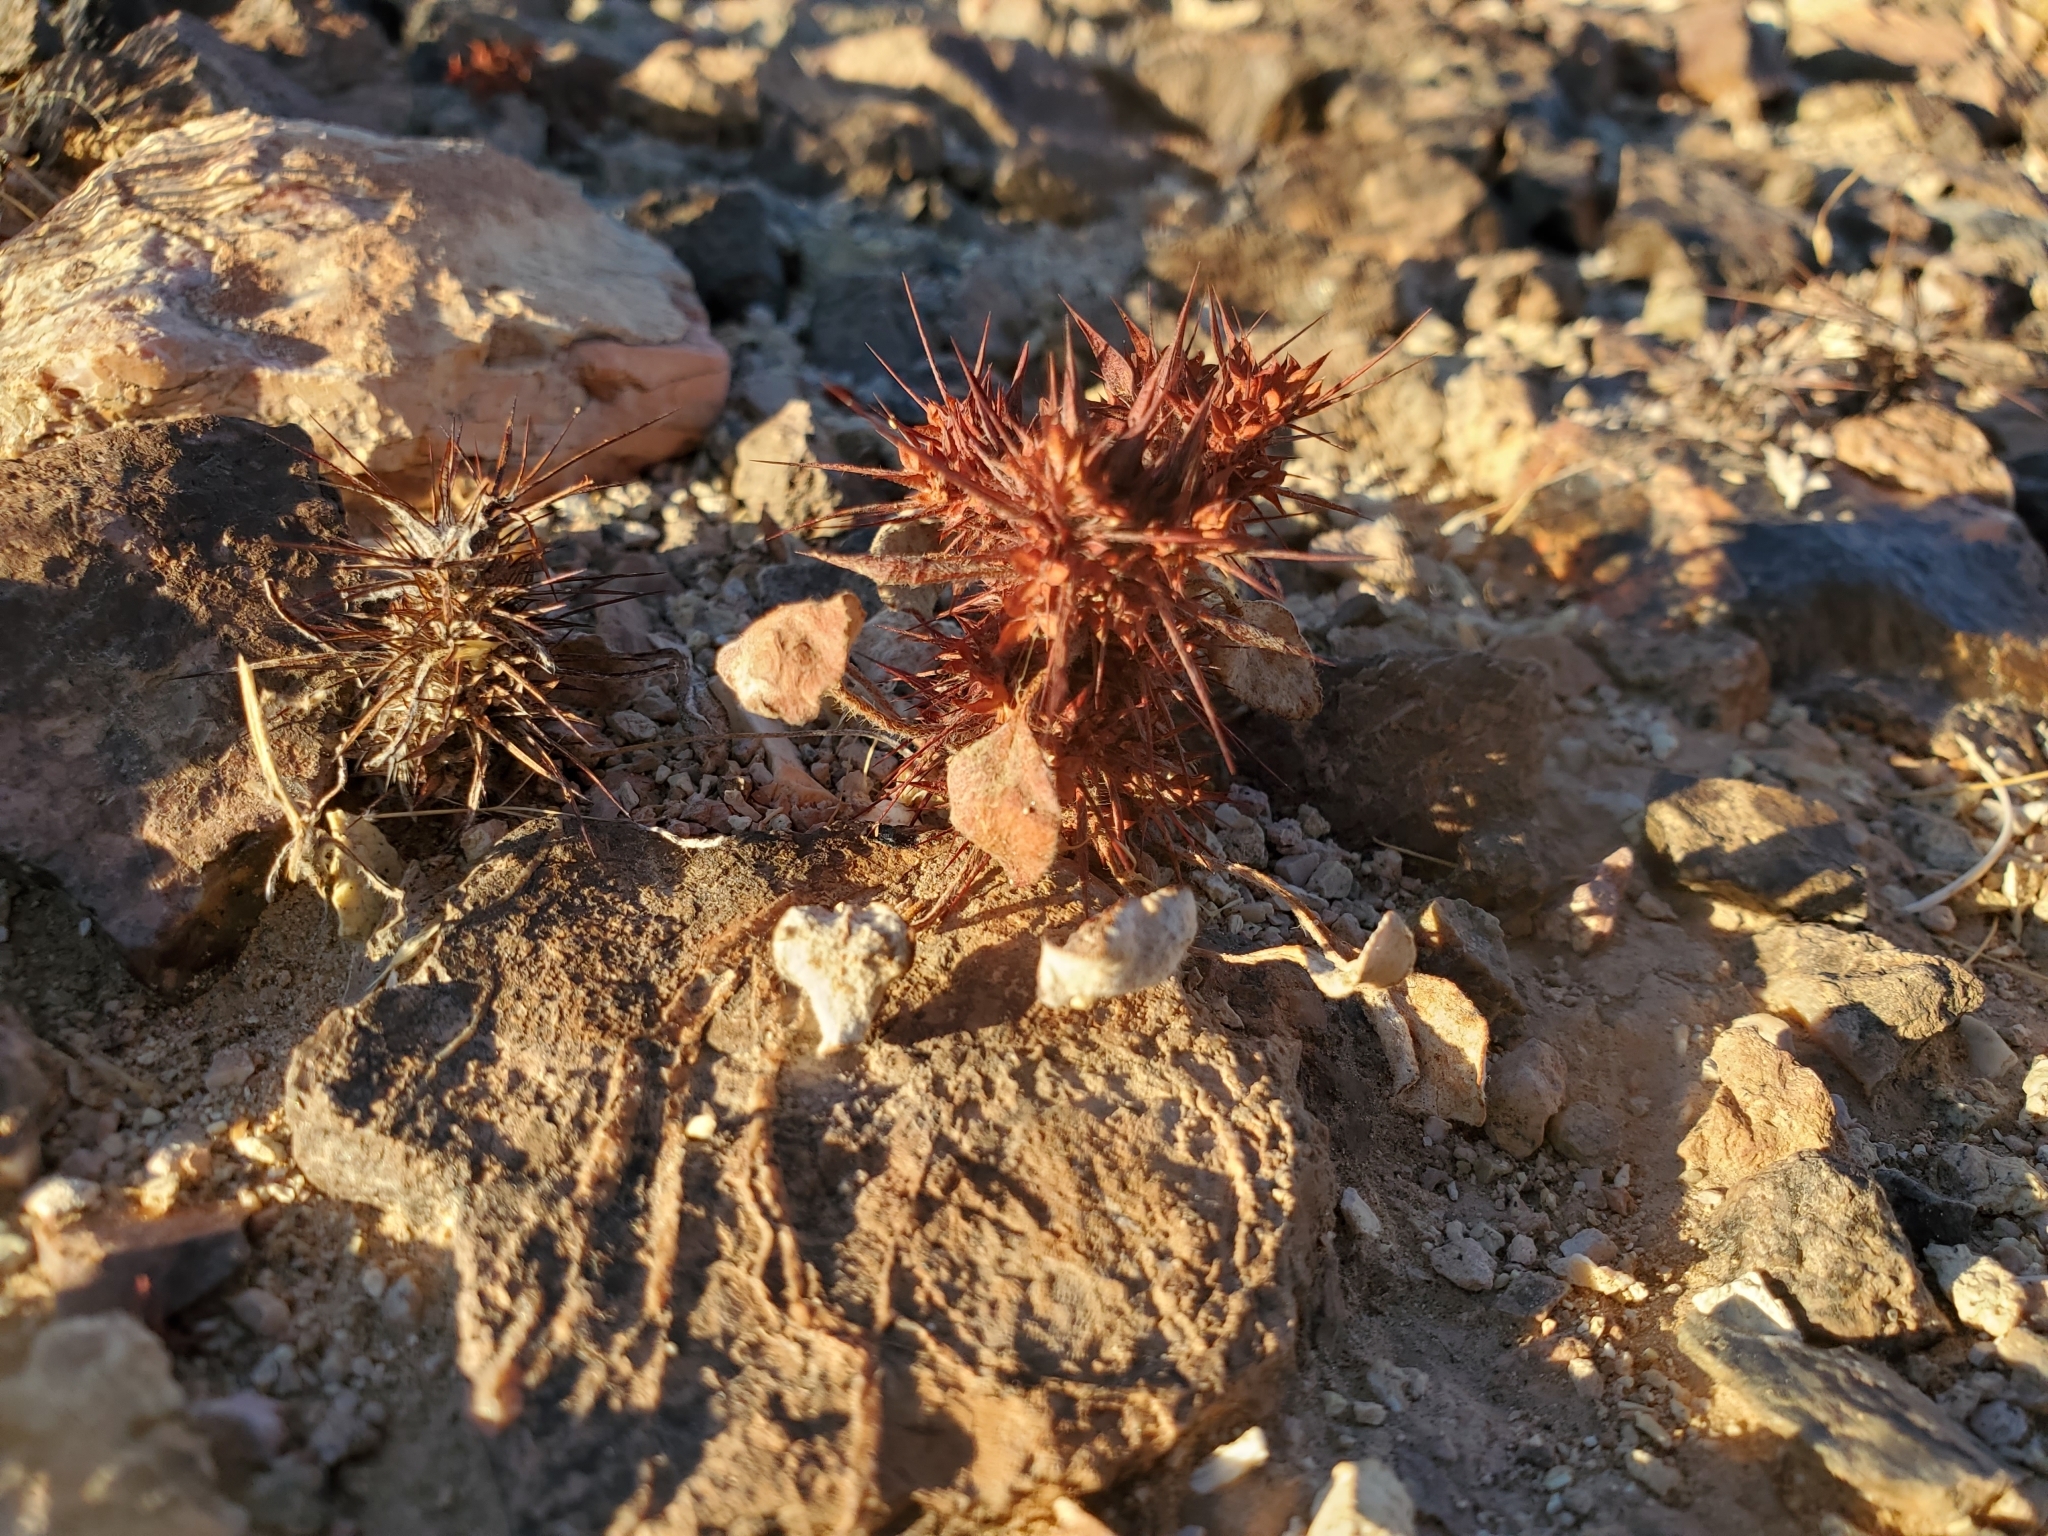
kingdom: Plantae
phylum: Tracheophyta
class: Magnoliopsida
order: Caryophyllales
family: Polygonaceae
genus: Chorizanthe
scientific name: Chorizanthe rigida
